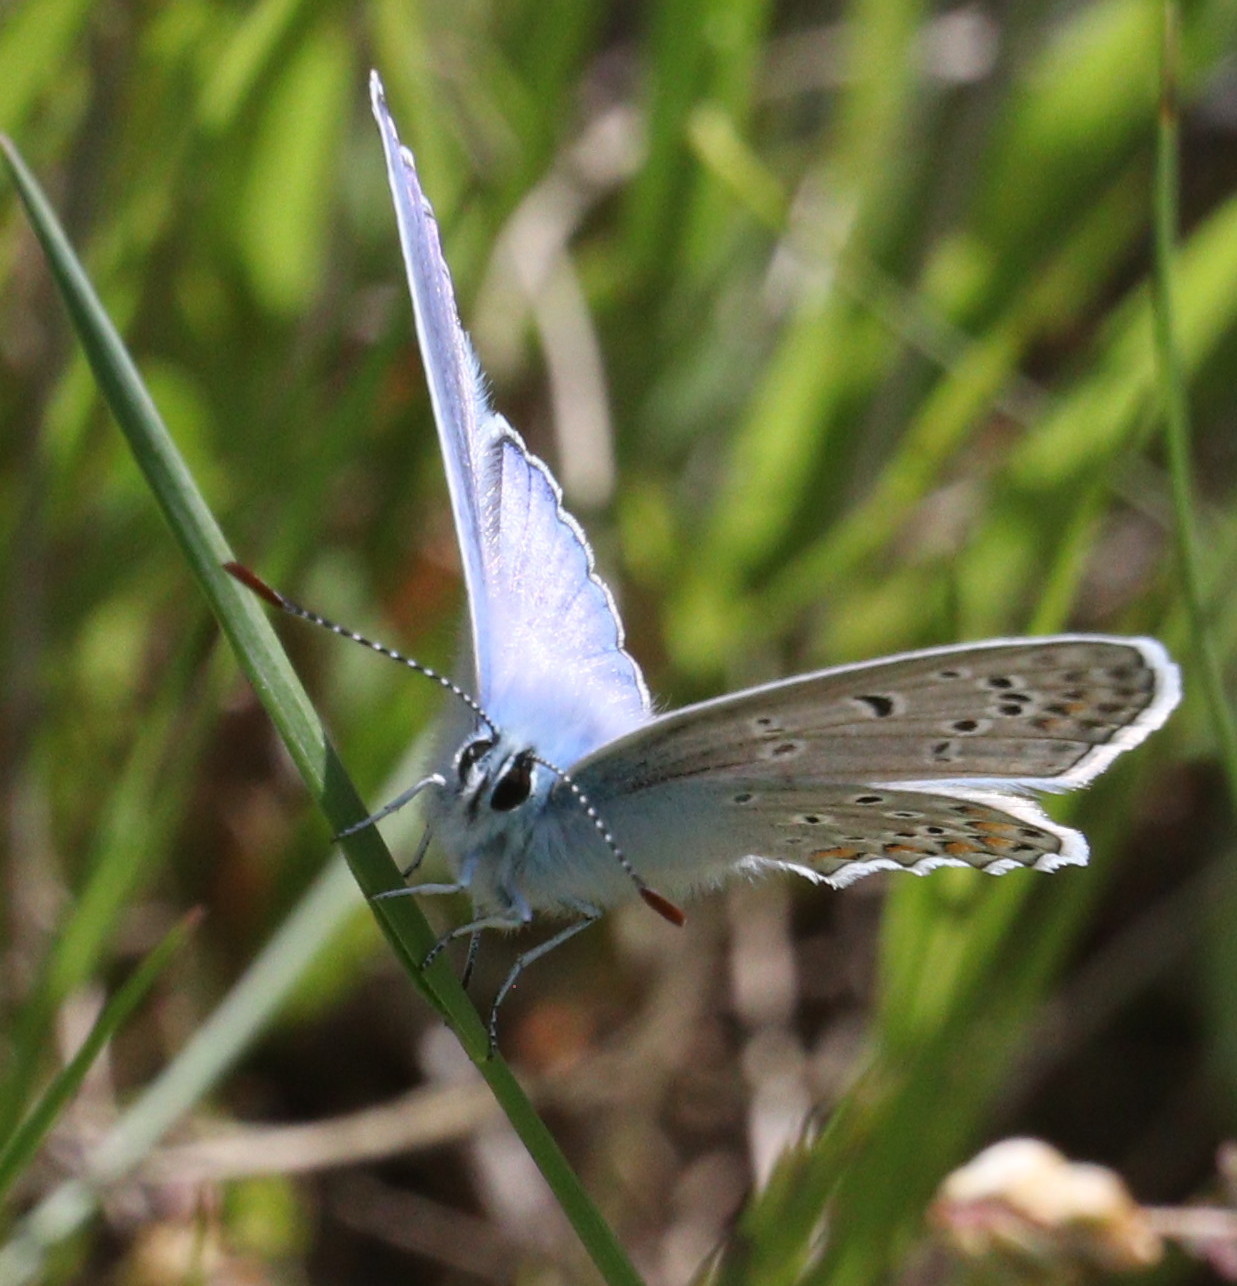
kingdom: Animalia
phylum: Arthropoda
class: Insecta
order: Lepidoptera
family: Lycaenidae
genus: Polyommatus
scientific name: Polyommatus icarus
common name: Common blue
